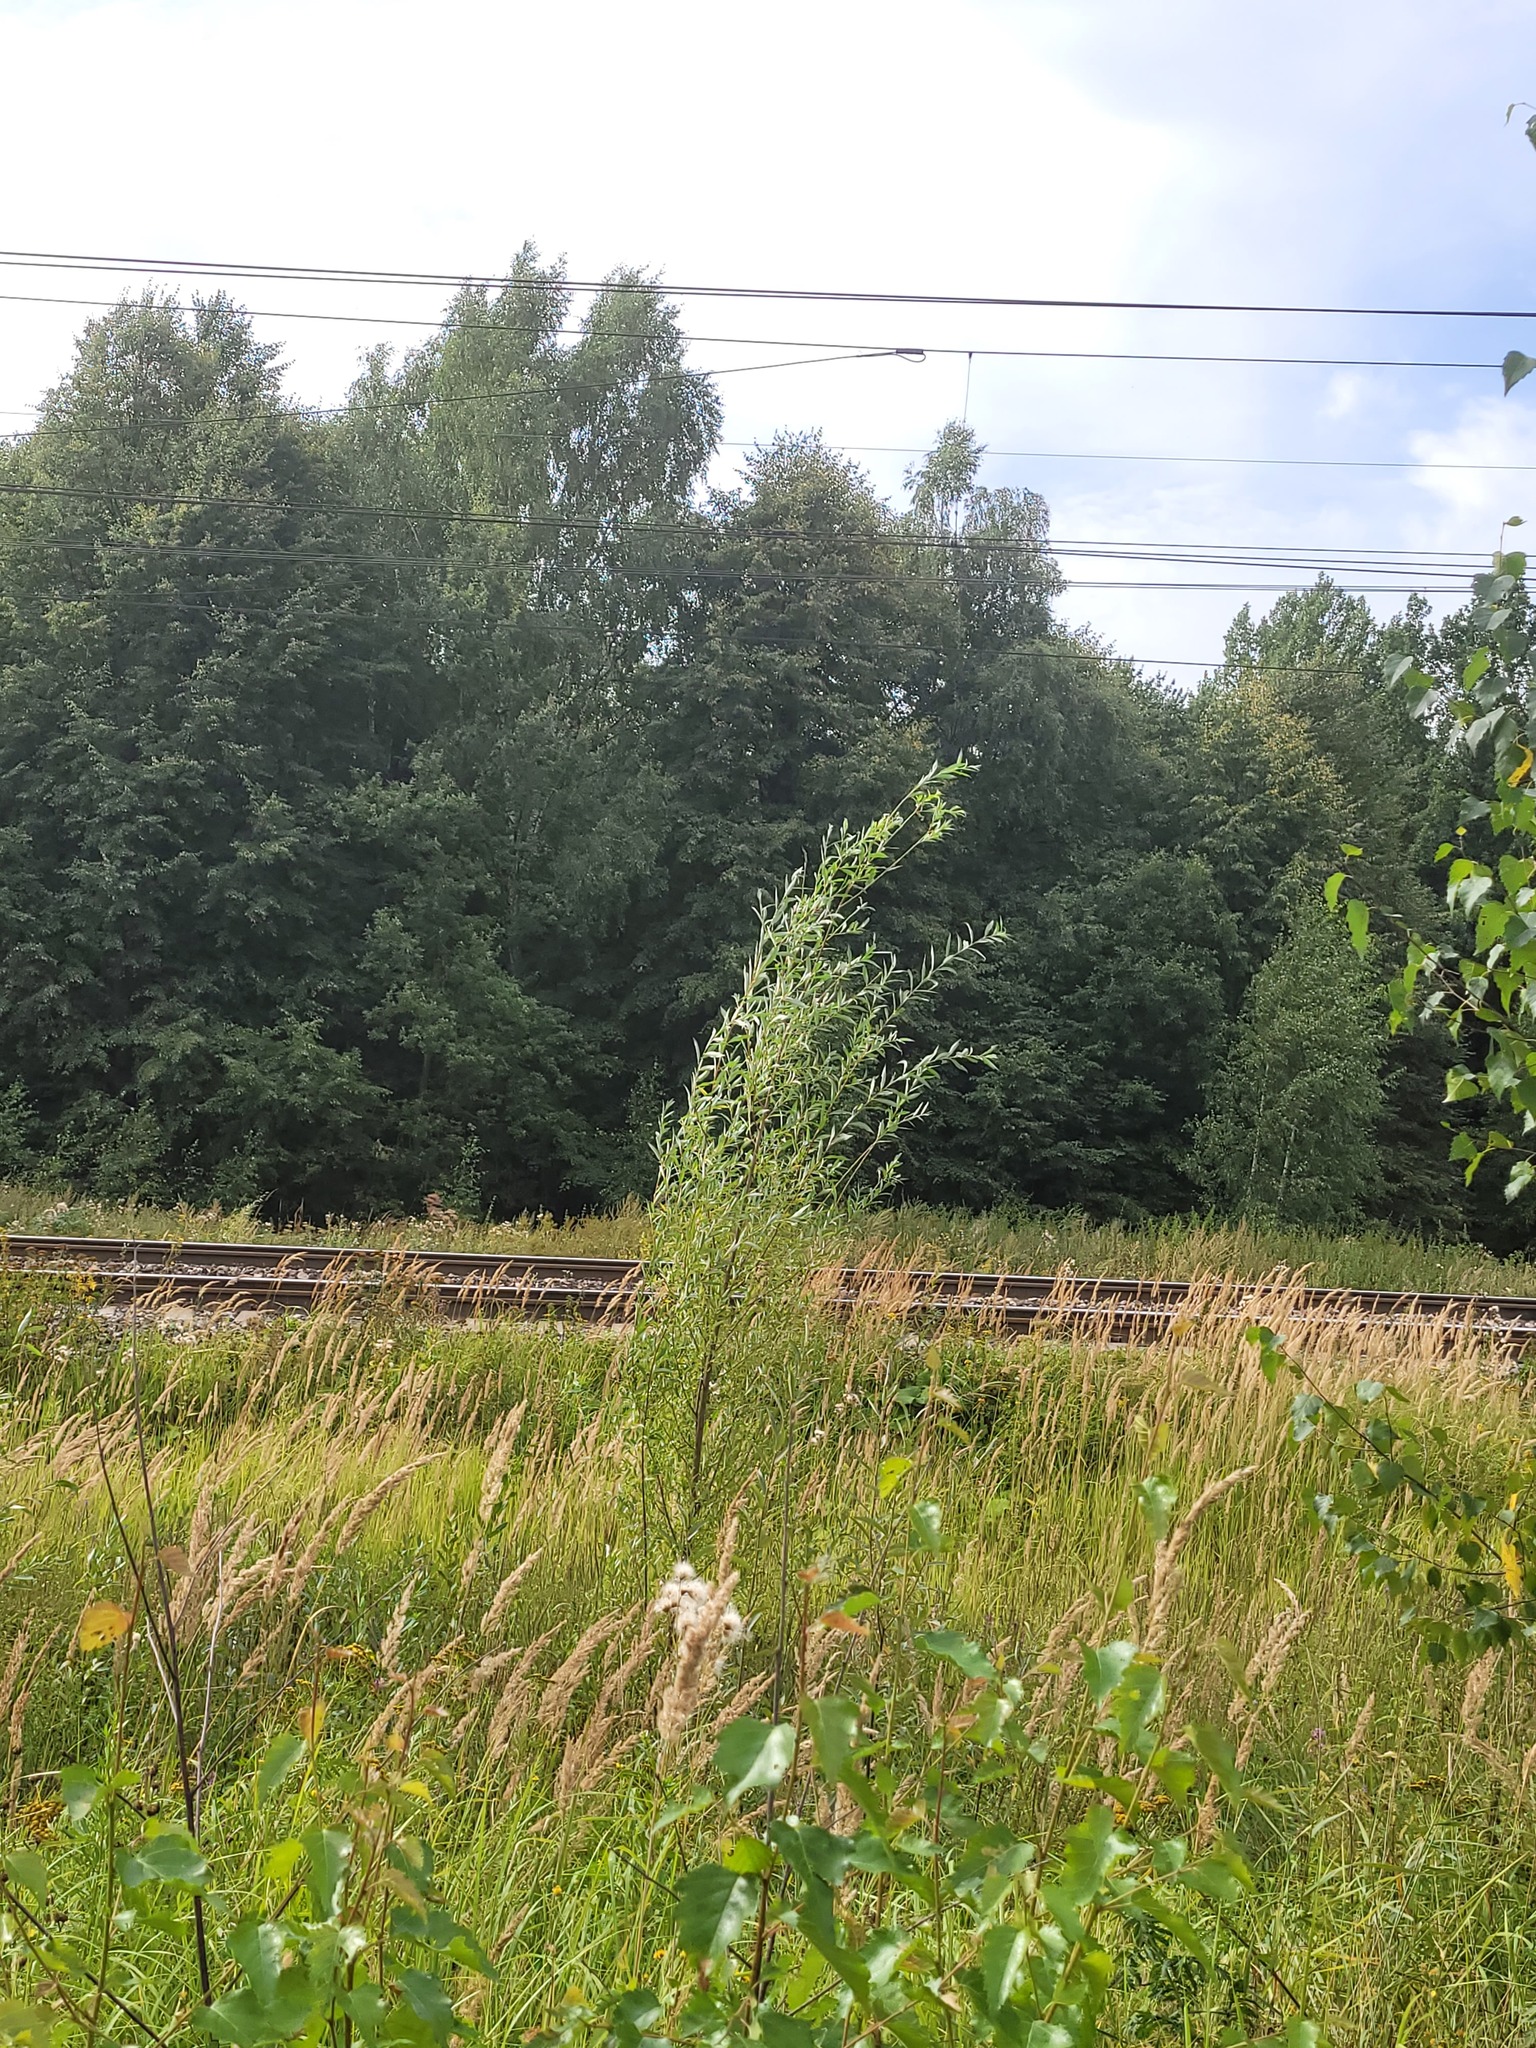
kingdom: Plantae
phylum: Tracheophyta
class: Magnoliopsida
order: Malpighiales
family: Salicaceae
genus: Salix
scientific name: Salix alba
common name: White willow
